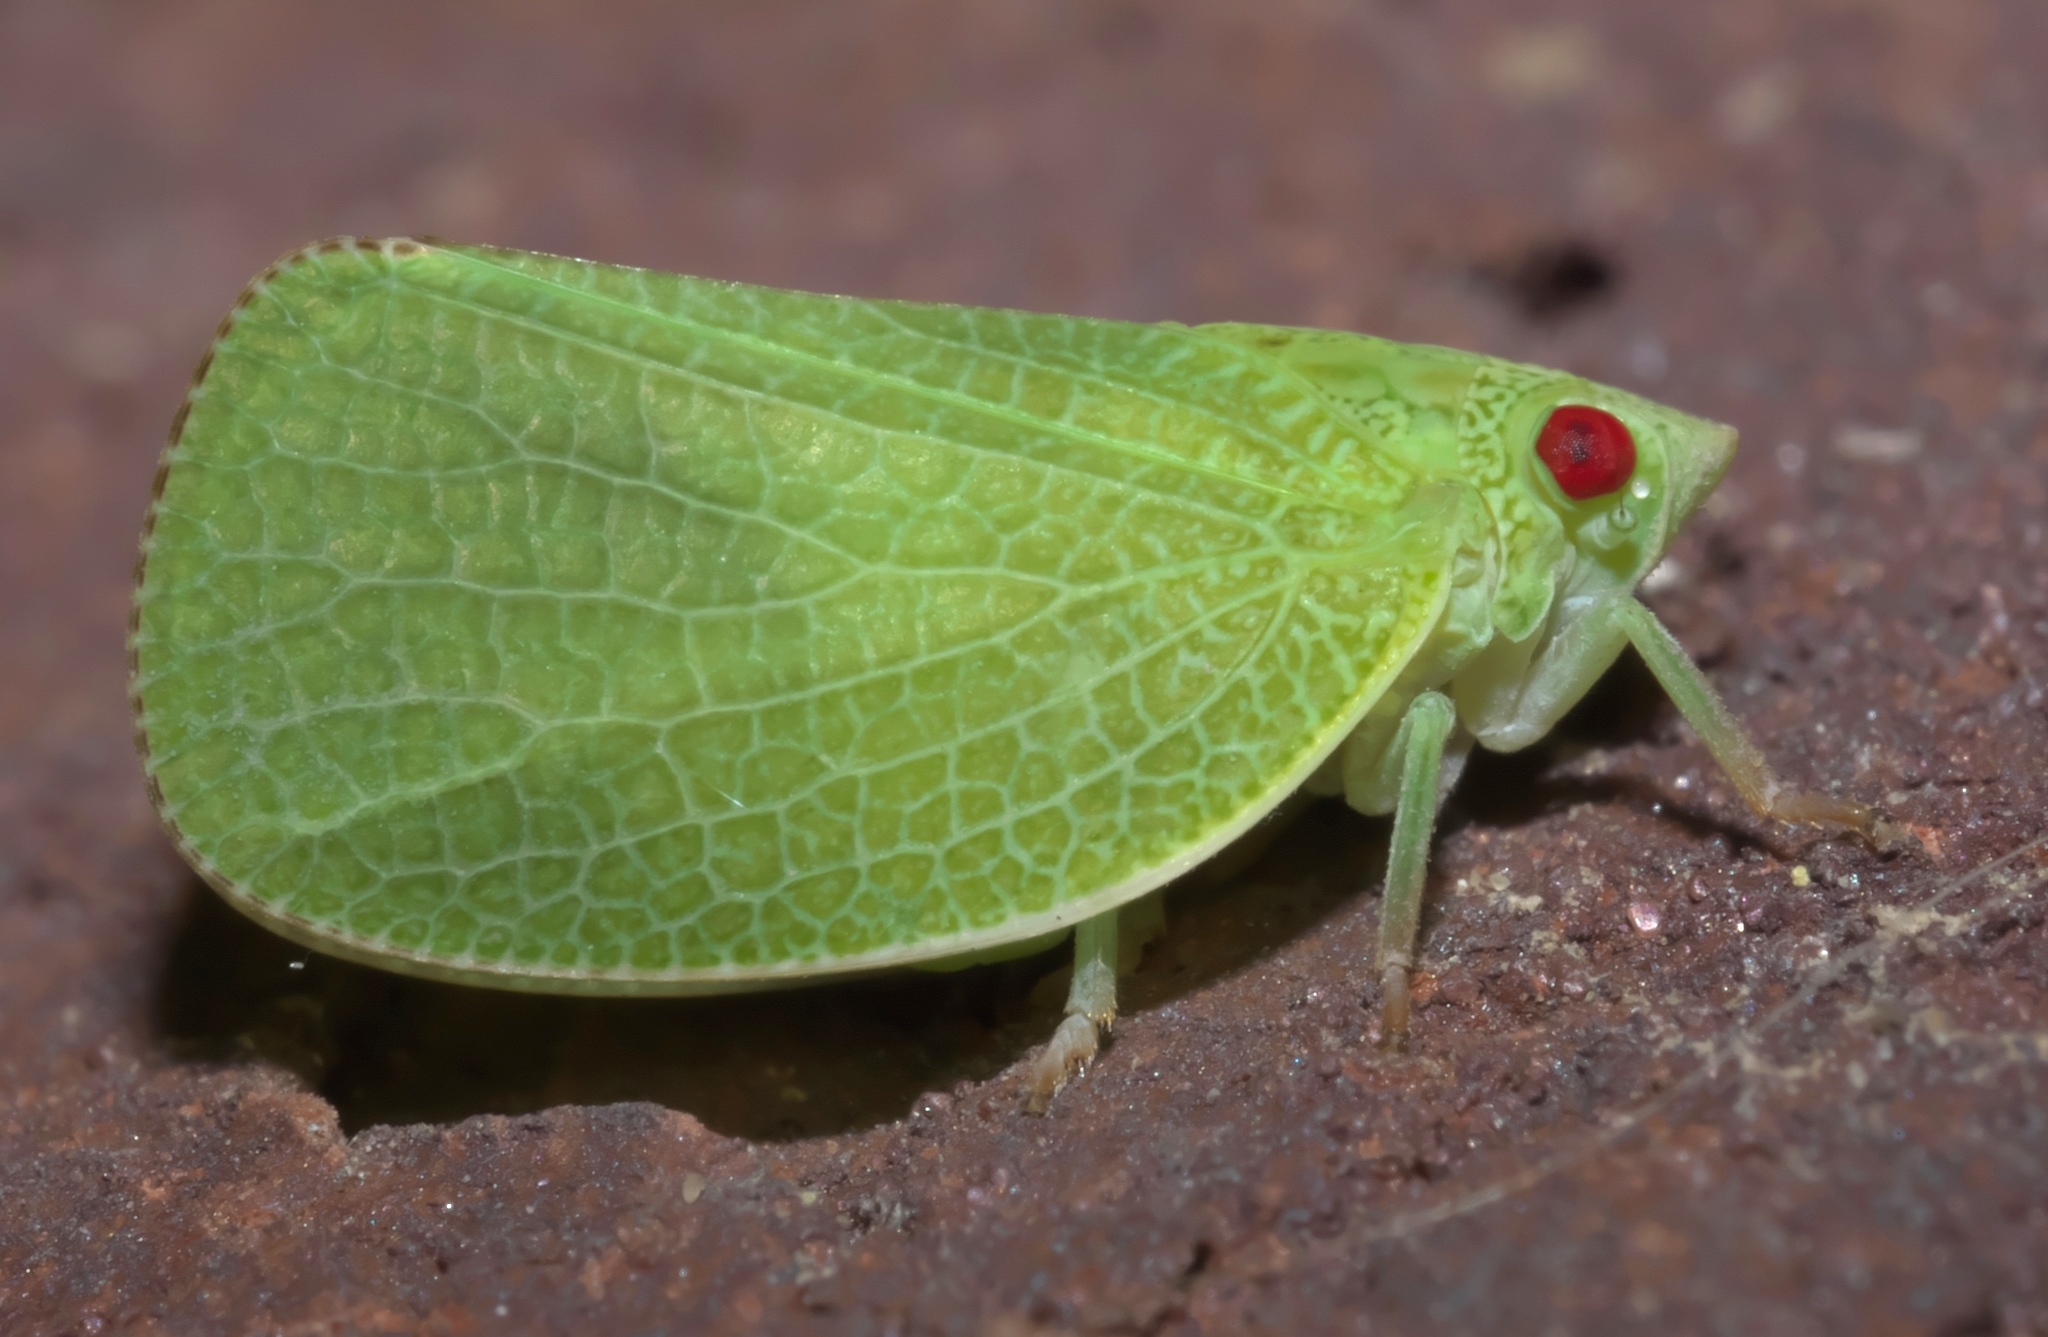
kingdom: Animalia
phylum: Arthropoda
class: Insecta
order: Hemiptera
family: Acanaloniidae
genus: Acanalonia
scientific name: Acanalonia conica
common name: Green cone-headed planthopper
